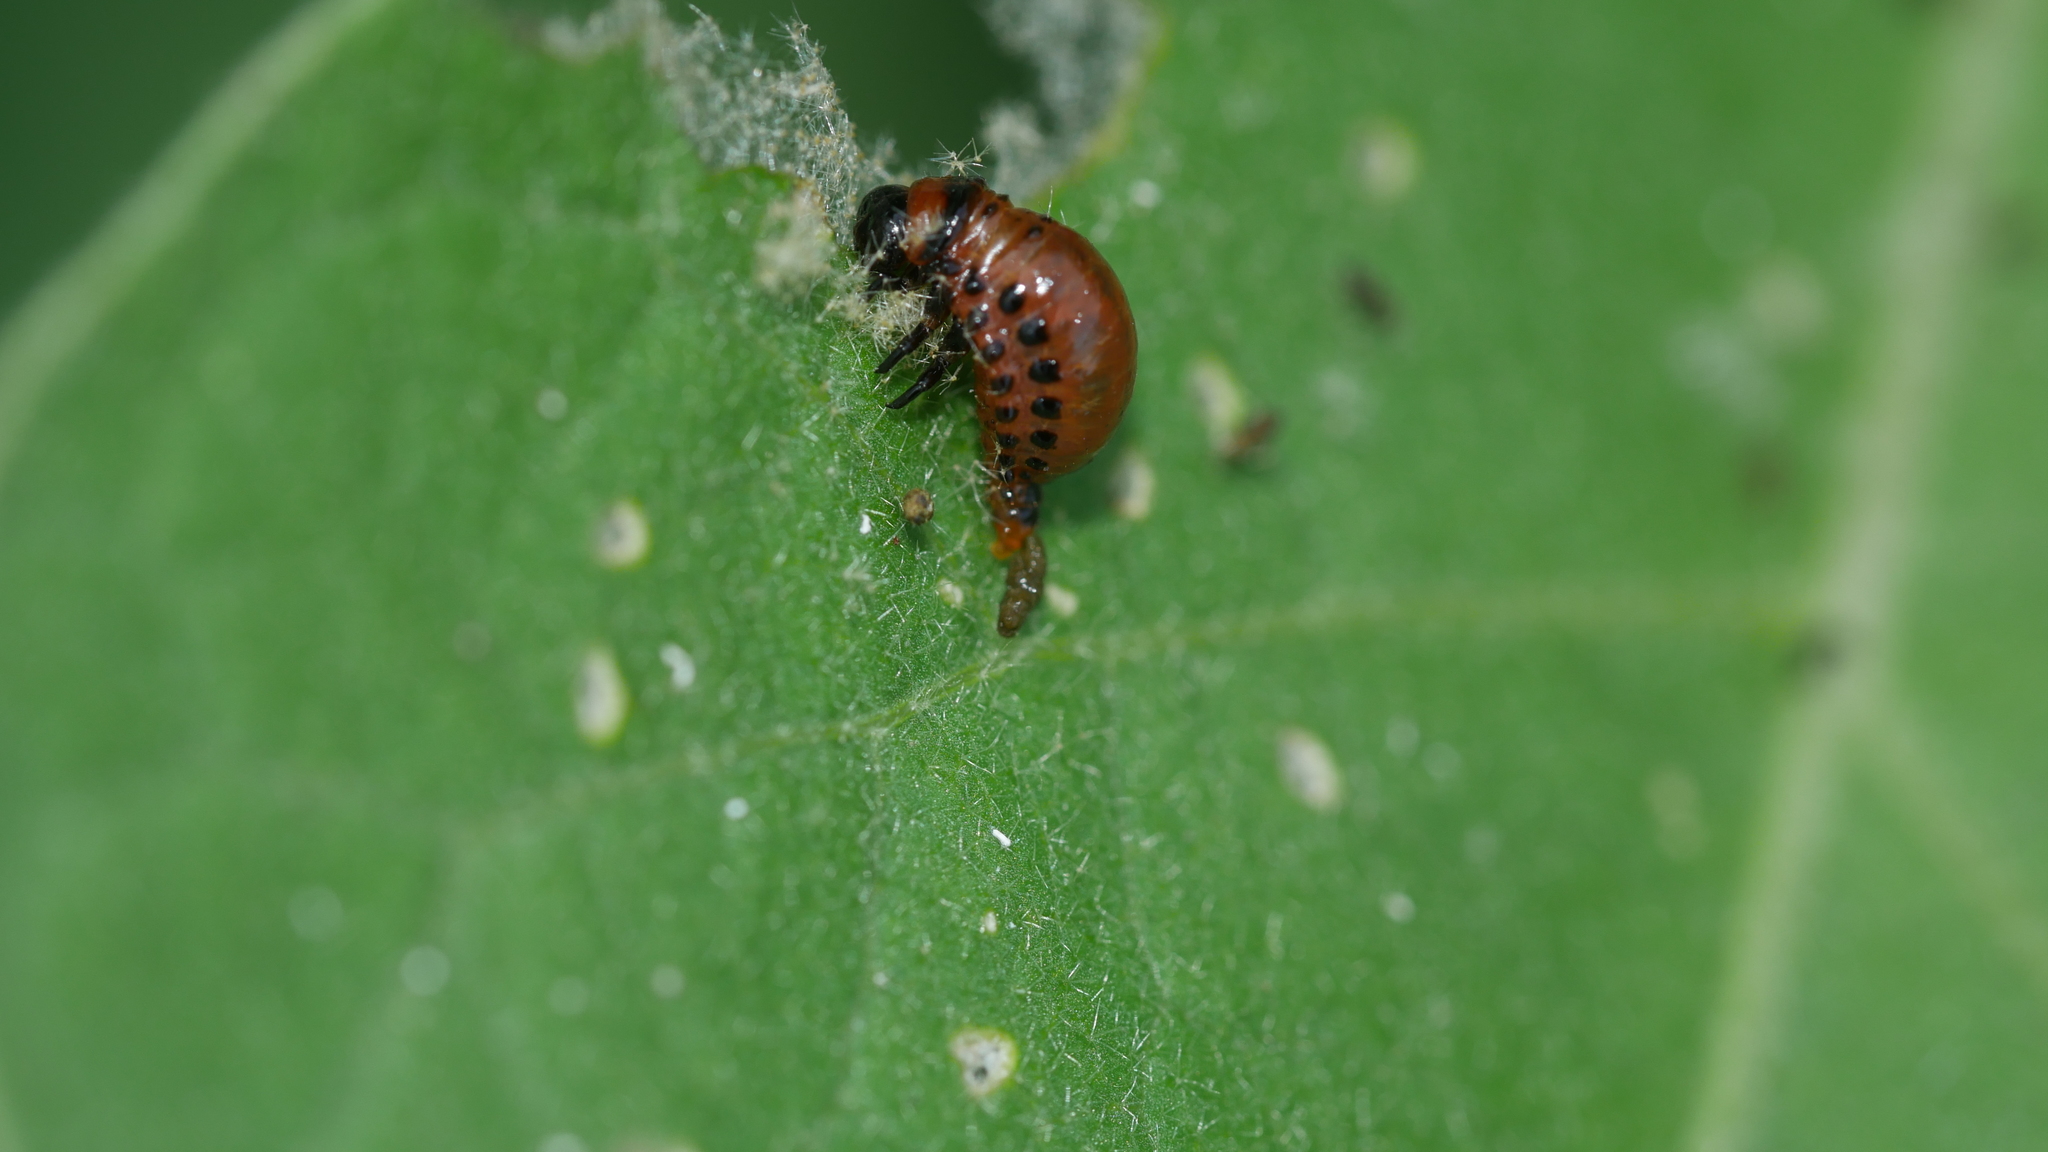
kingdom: Animalia
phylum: Arthropoda
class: Insecta
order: Coleoptera
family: Chrysomelidae
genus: Leptinotarsa
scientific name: Leptinotarsa decemlineata
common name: Colorado potato beetle
